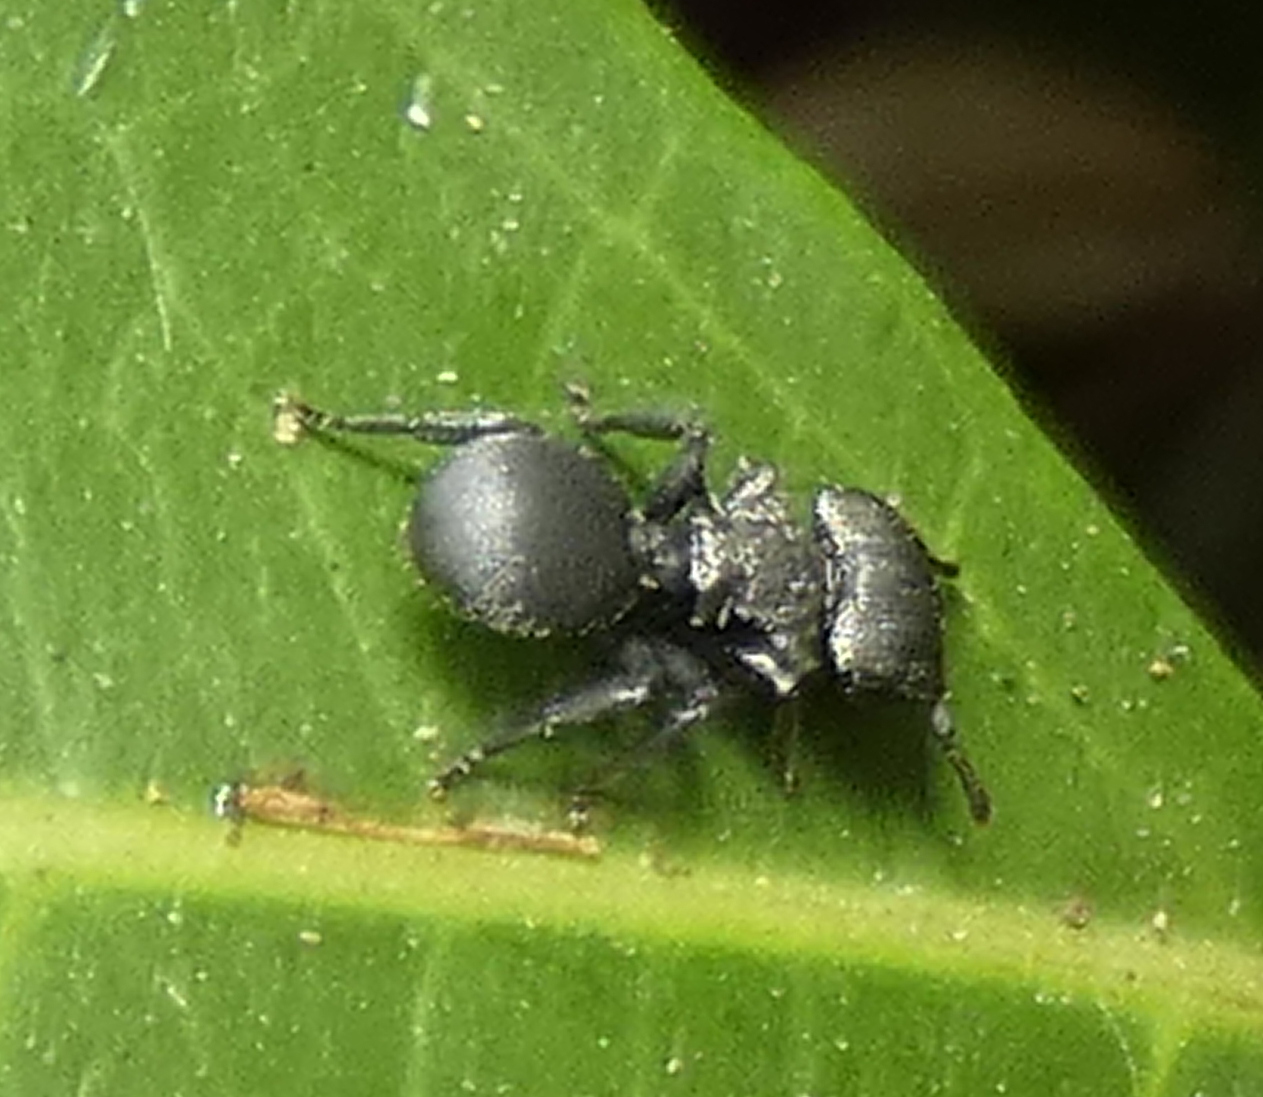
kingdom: Animalia
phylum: Arthropoda
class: Insecta
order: Hymenoptera
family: Formicidae
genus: Cephalotes
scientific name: Cephalotes
